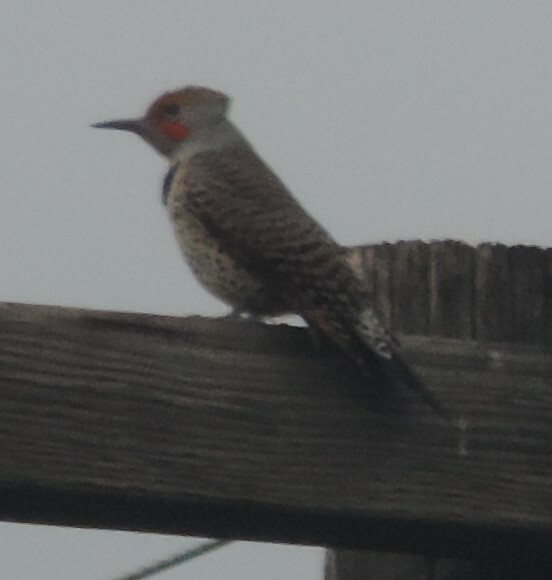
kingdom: Animalia
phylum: Chordata
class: Aves
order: Piciformes
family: Picidae
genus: Colaptes
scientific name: Colaptes auratus
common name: Northern flicker
